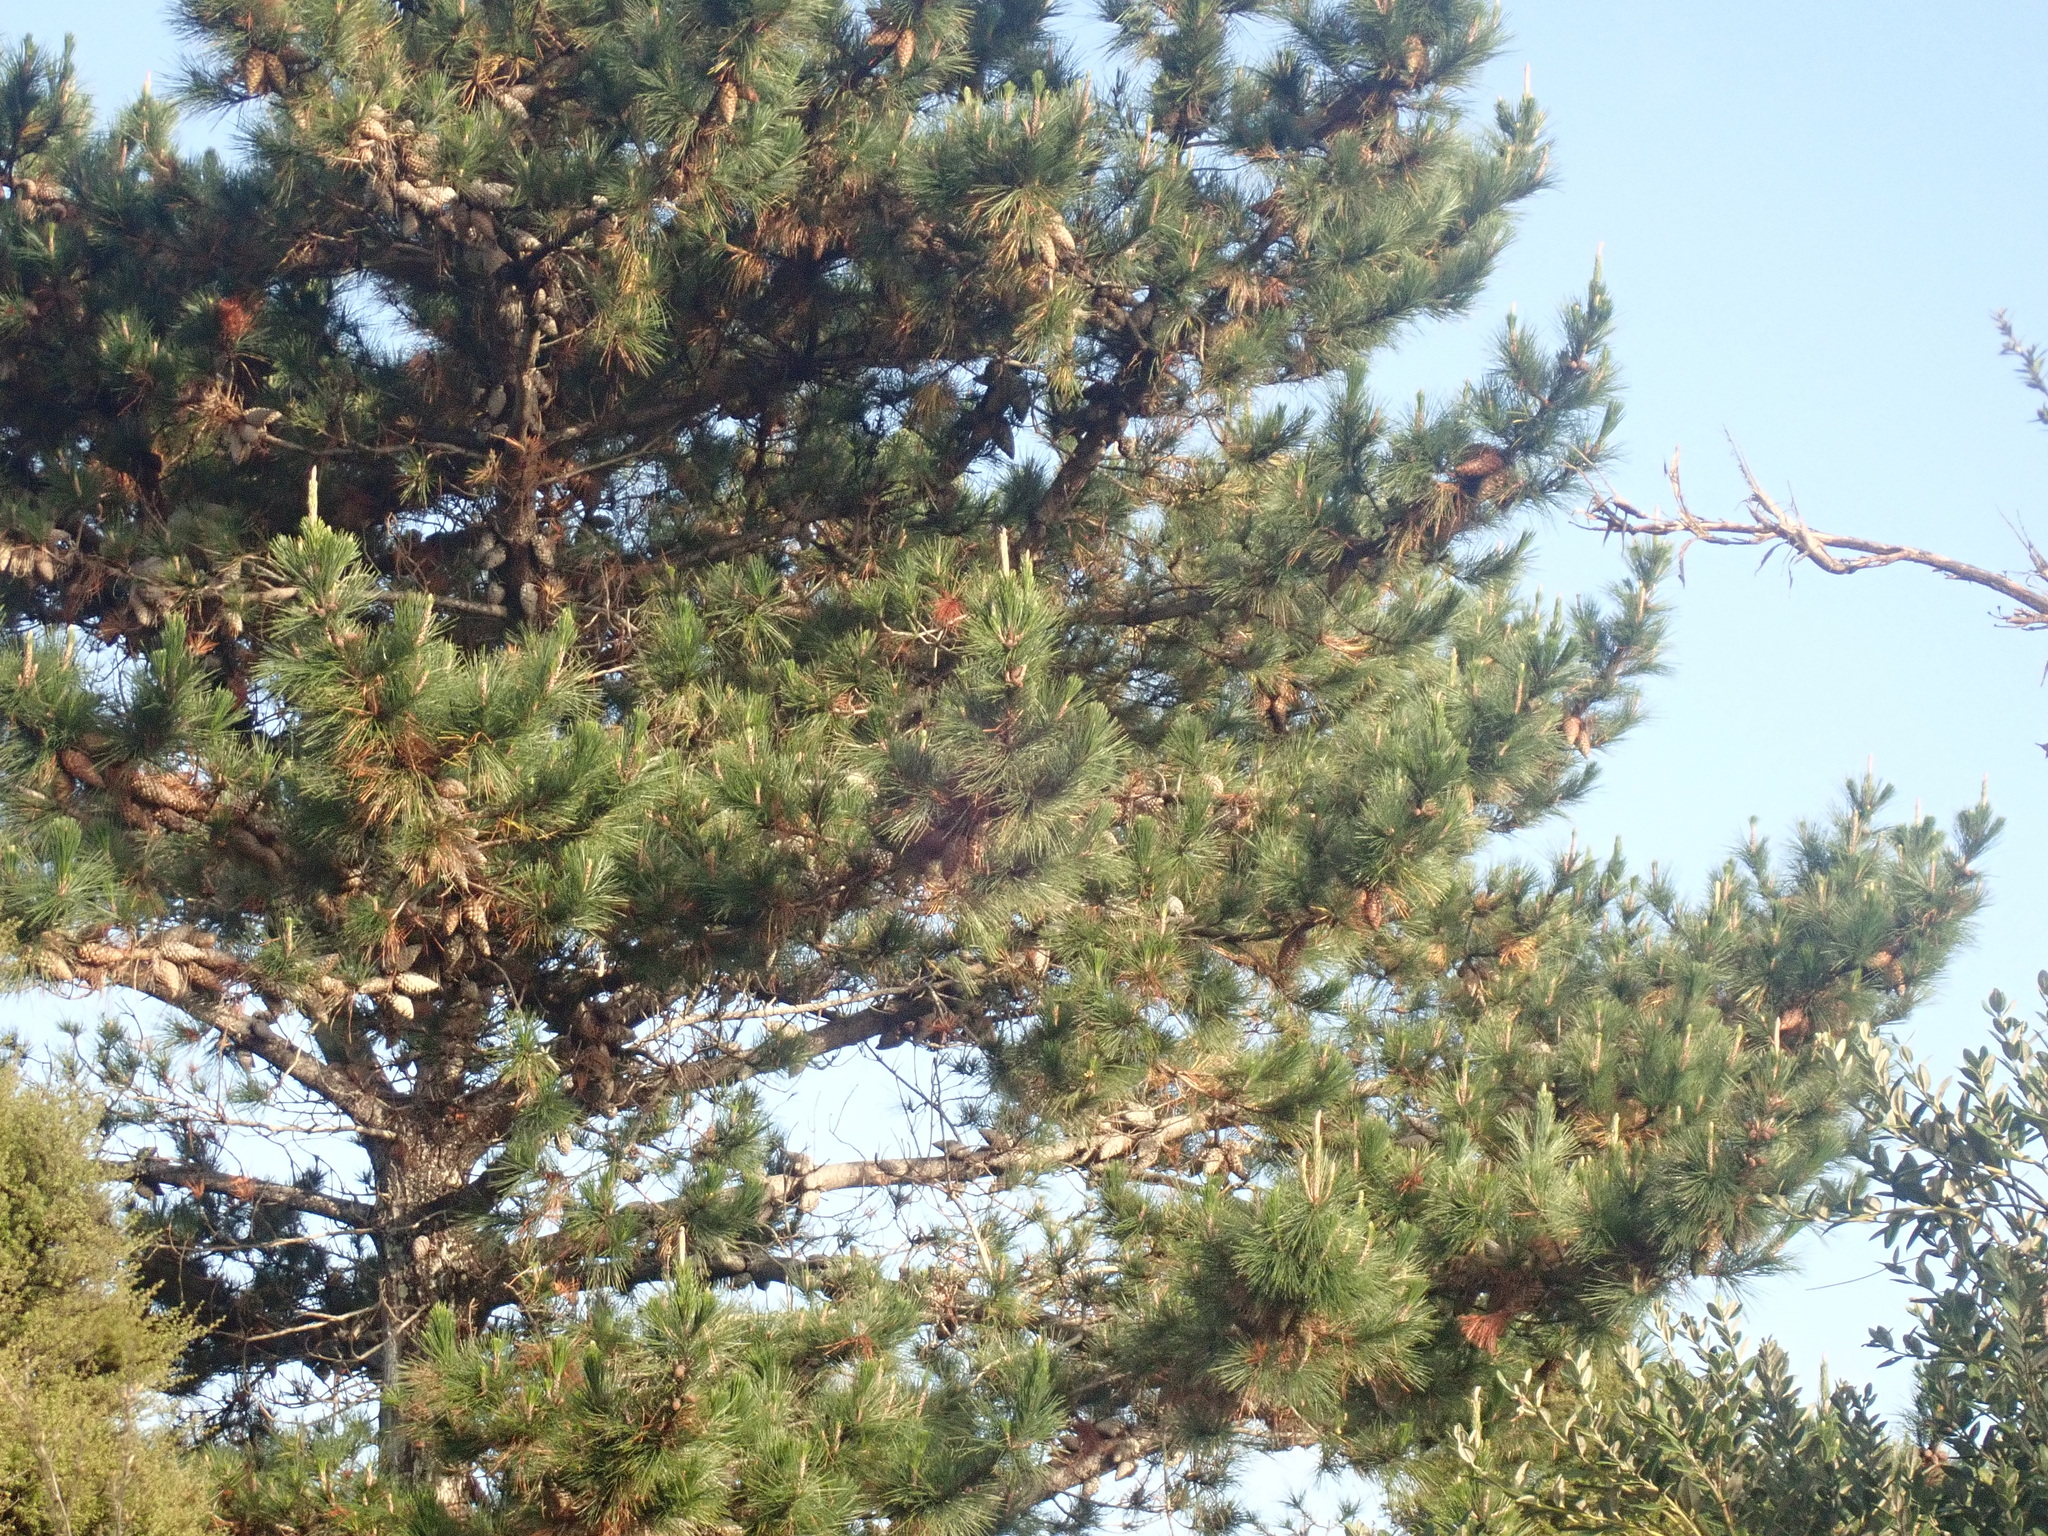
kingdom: Plantae
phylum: Tracheophyta
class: Pinopsida
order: Pinales
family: Pinaceae
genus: Pinus
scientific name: Pinus radiata
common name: Monterey pine
